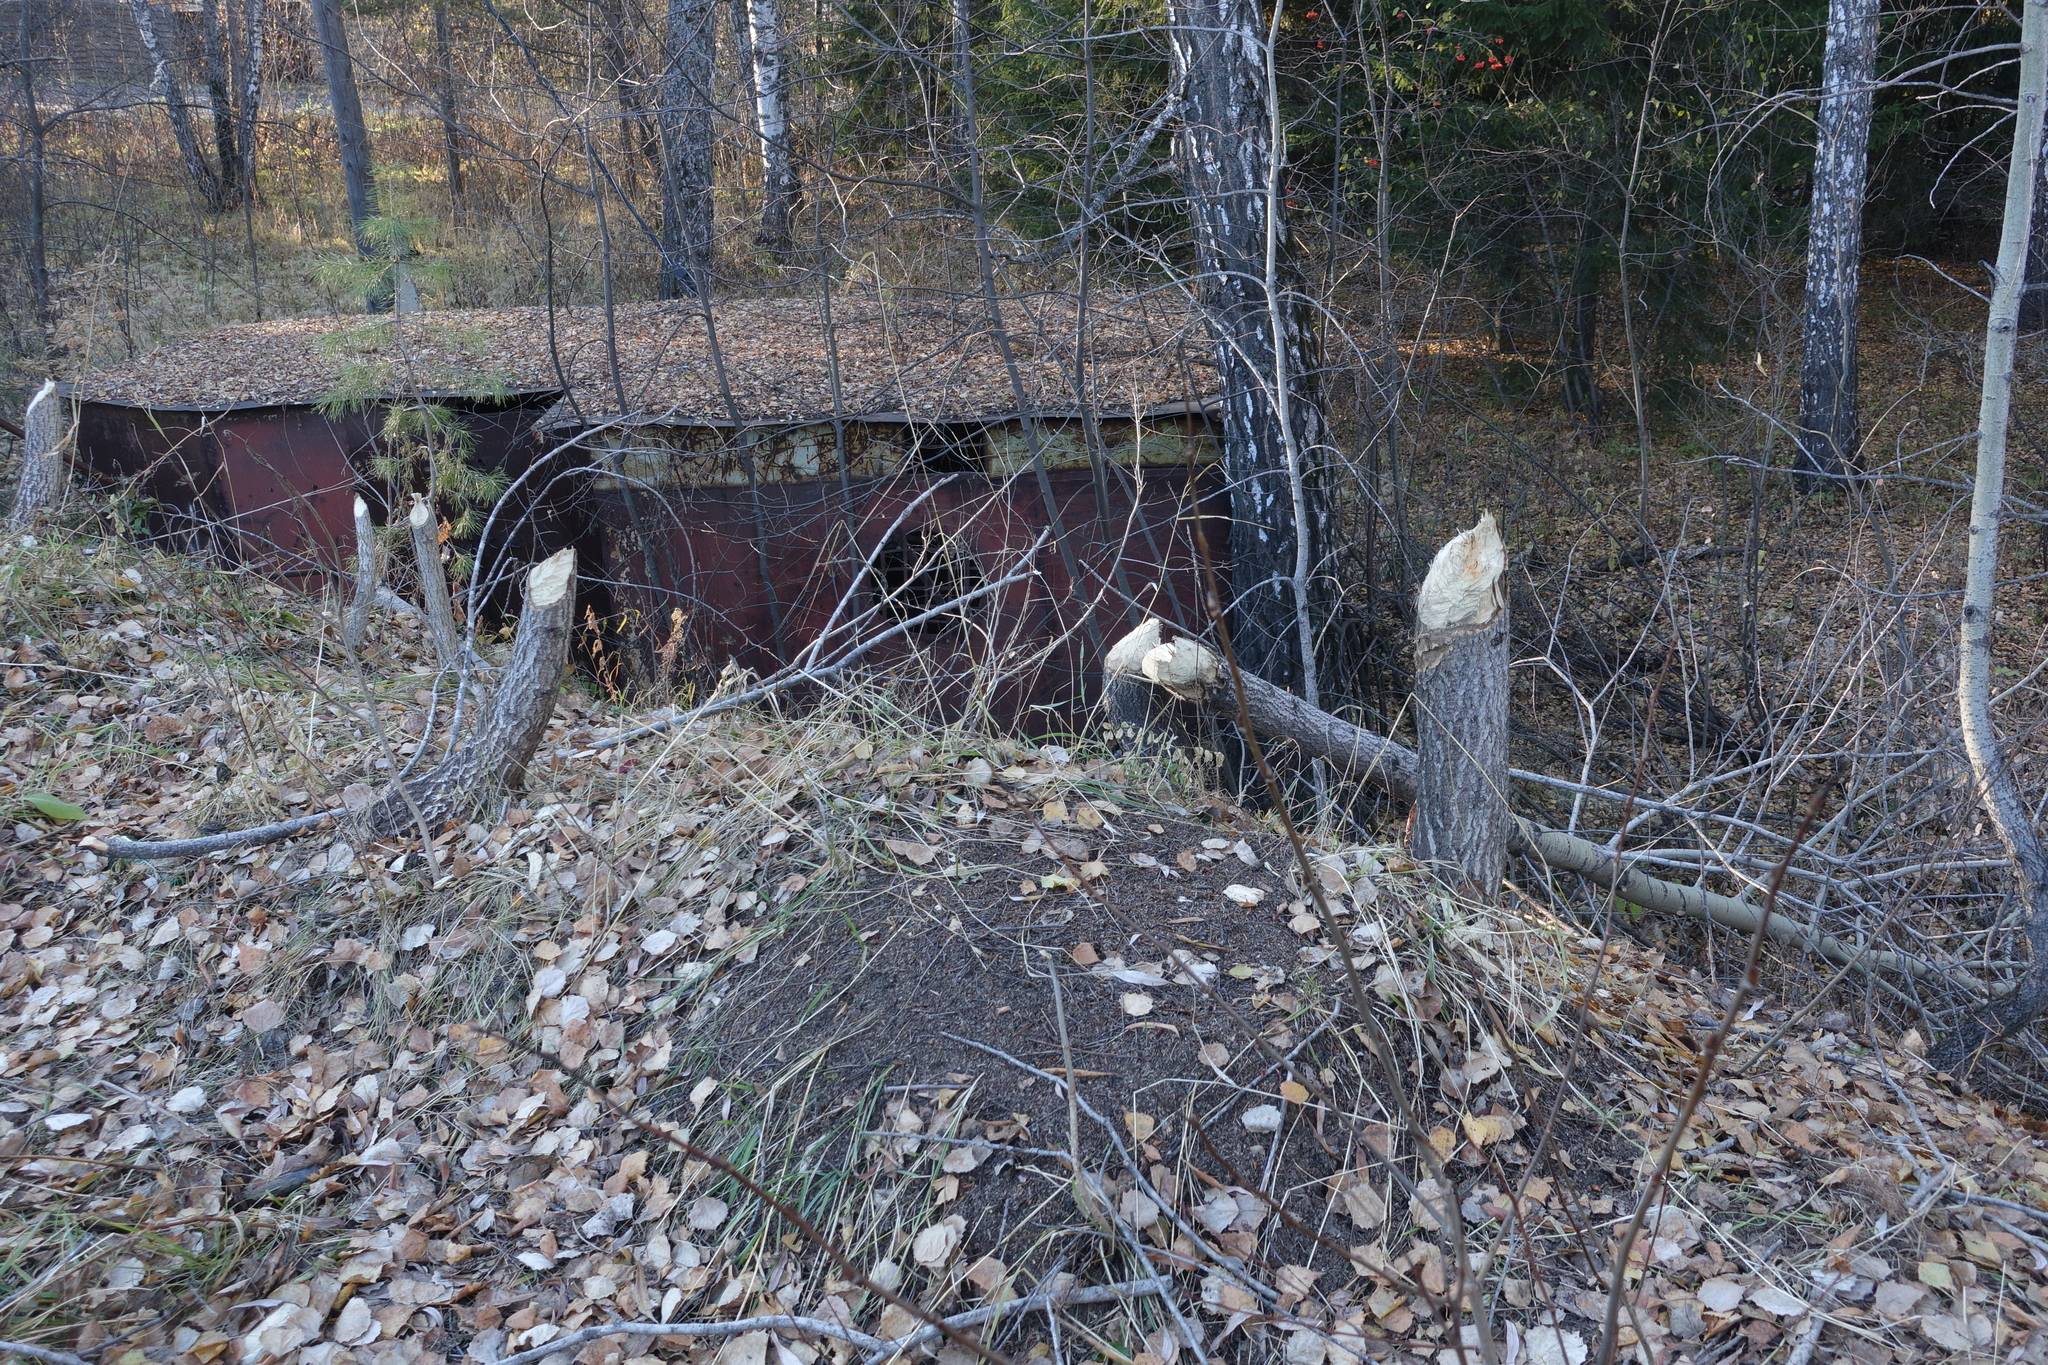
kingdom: Animalia
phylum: Chordata
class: Mammalia
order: Rodentia
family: Castoridae
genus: Castor
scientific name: Castor fiber
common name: Eurasian beaver
